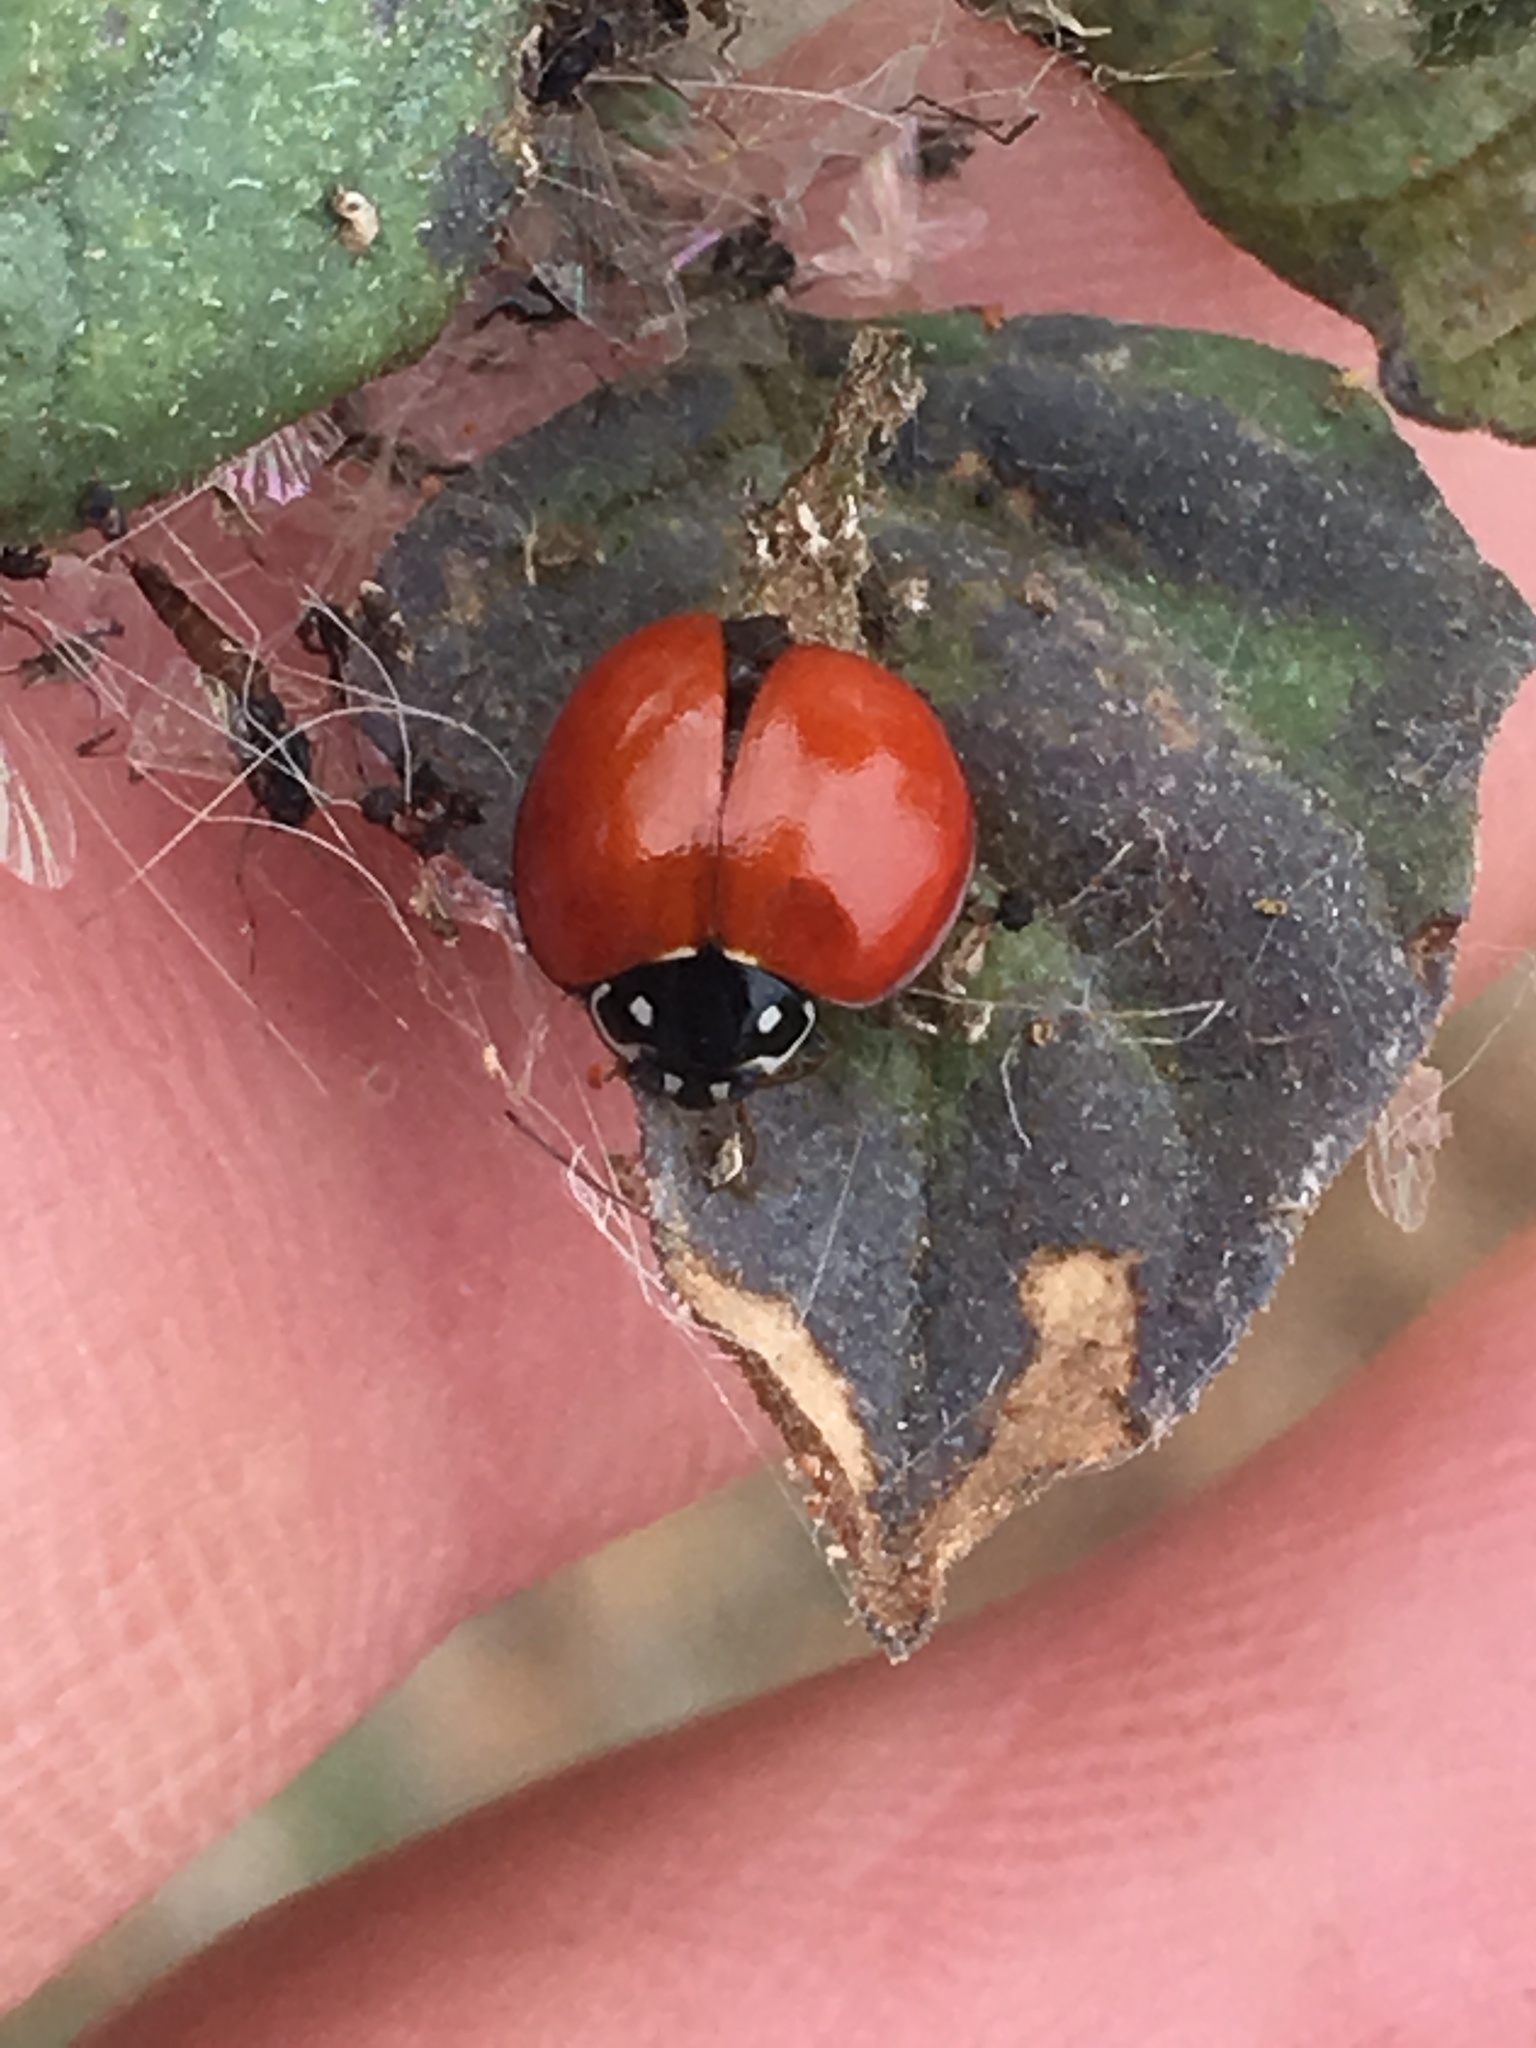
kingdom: Animalia
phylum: Arthropoda
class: Insecta
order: Coleoptera
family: Coccinellidae
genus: Cycloneda
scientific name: Cycloneda sanguinea
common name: Ladybird beetle
